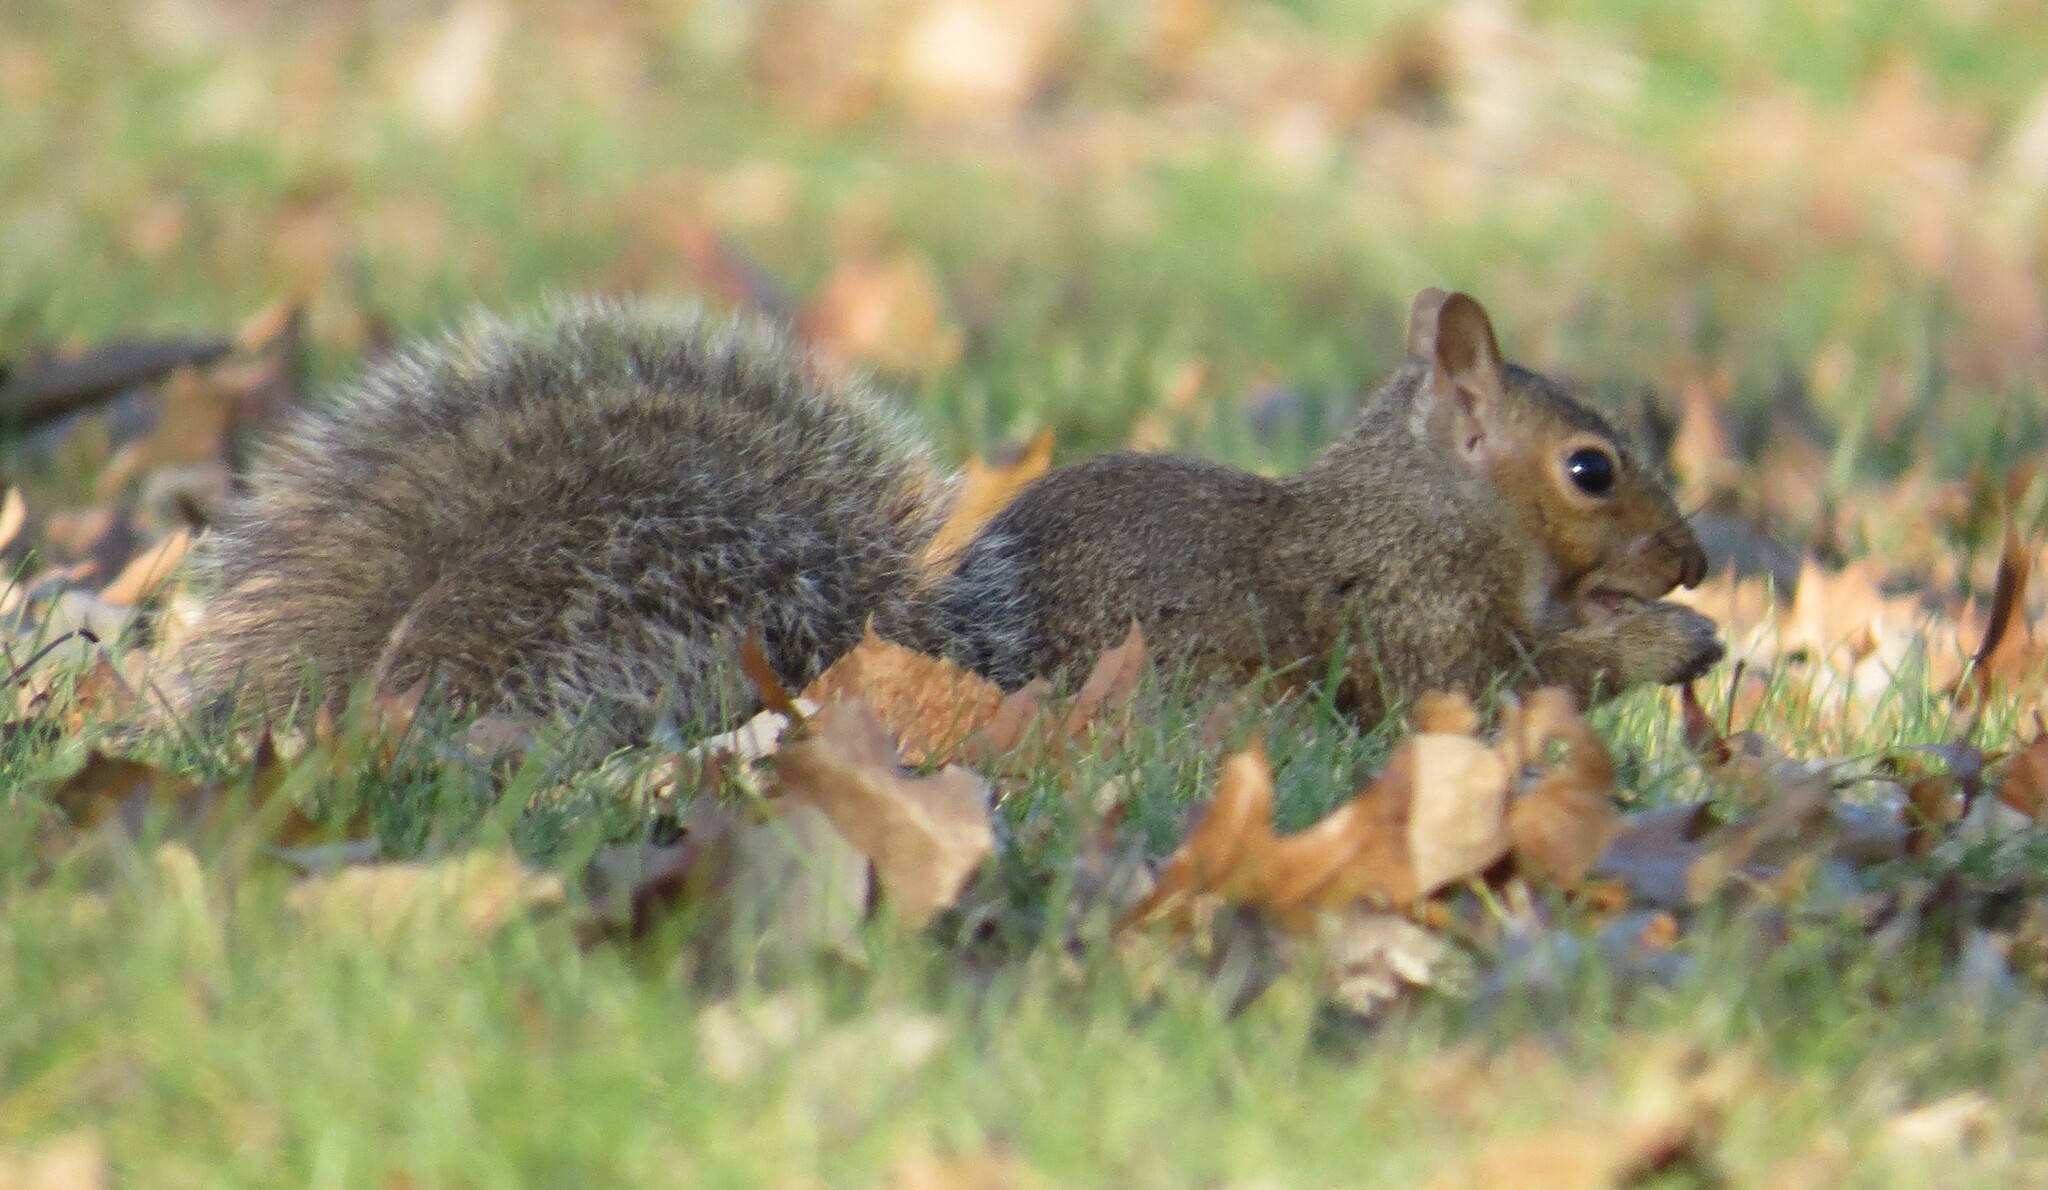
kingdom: Animalia
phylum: Chordata
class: Mammalia
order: Rodentia
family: Sciuridae
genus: Sciurus
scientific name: Sciurus carolinensis
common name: Eastern gray squirrel
